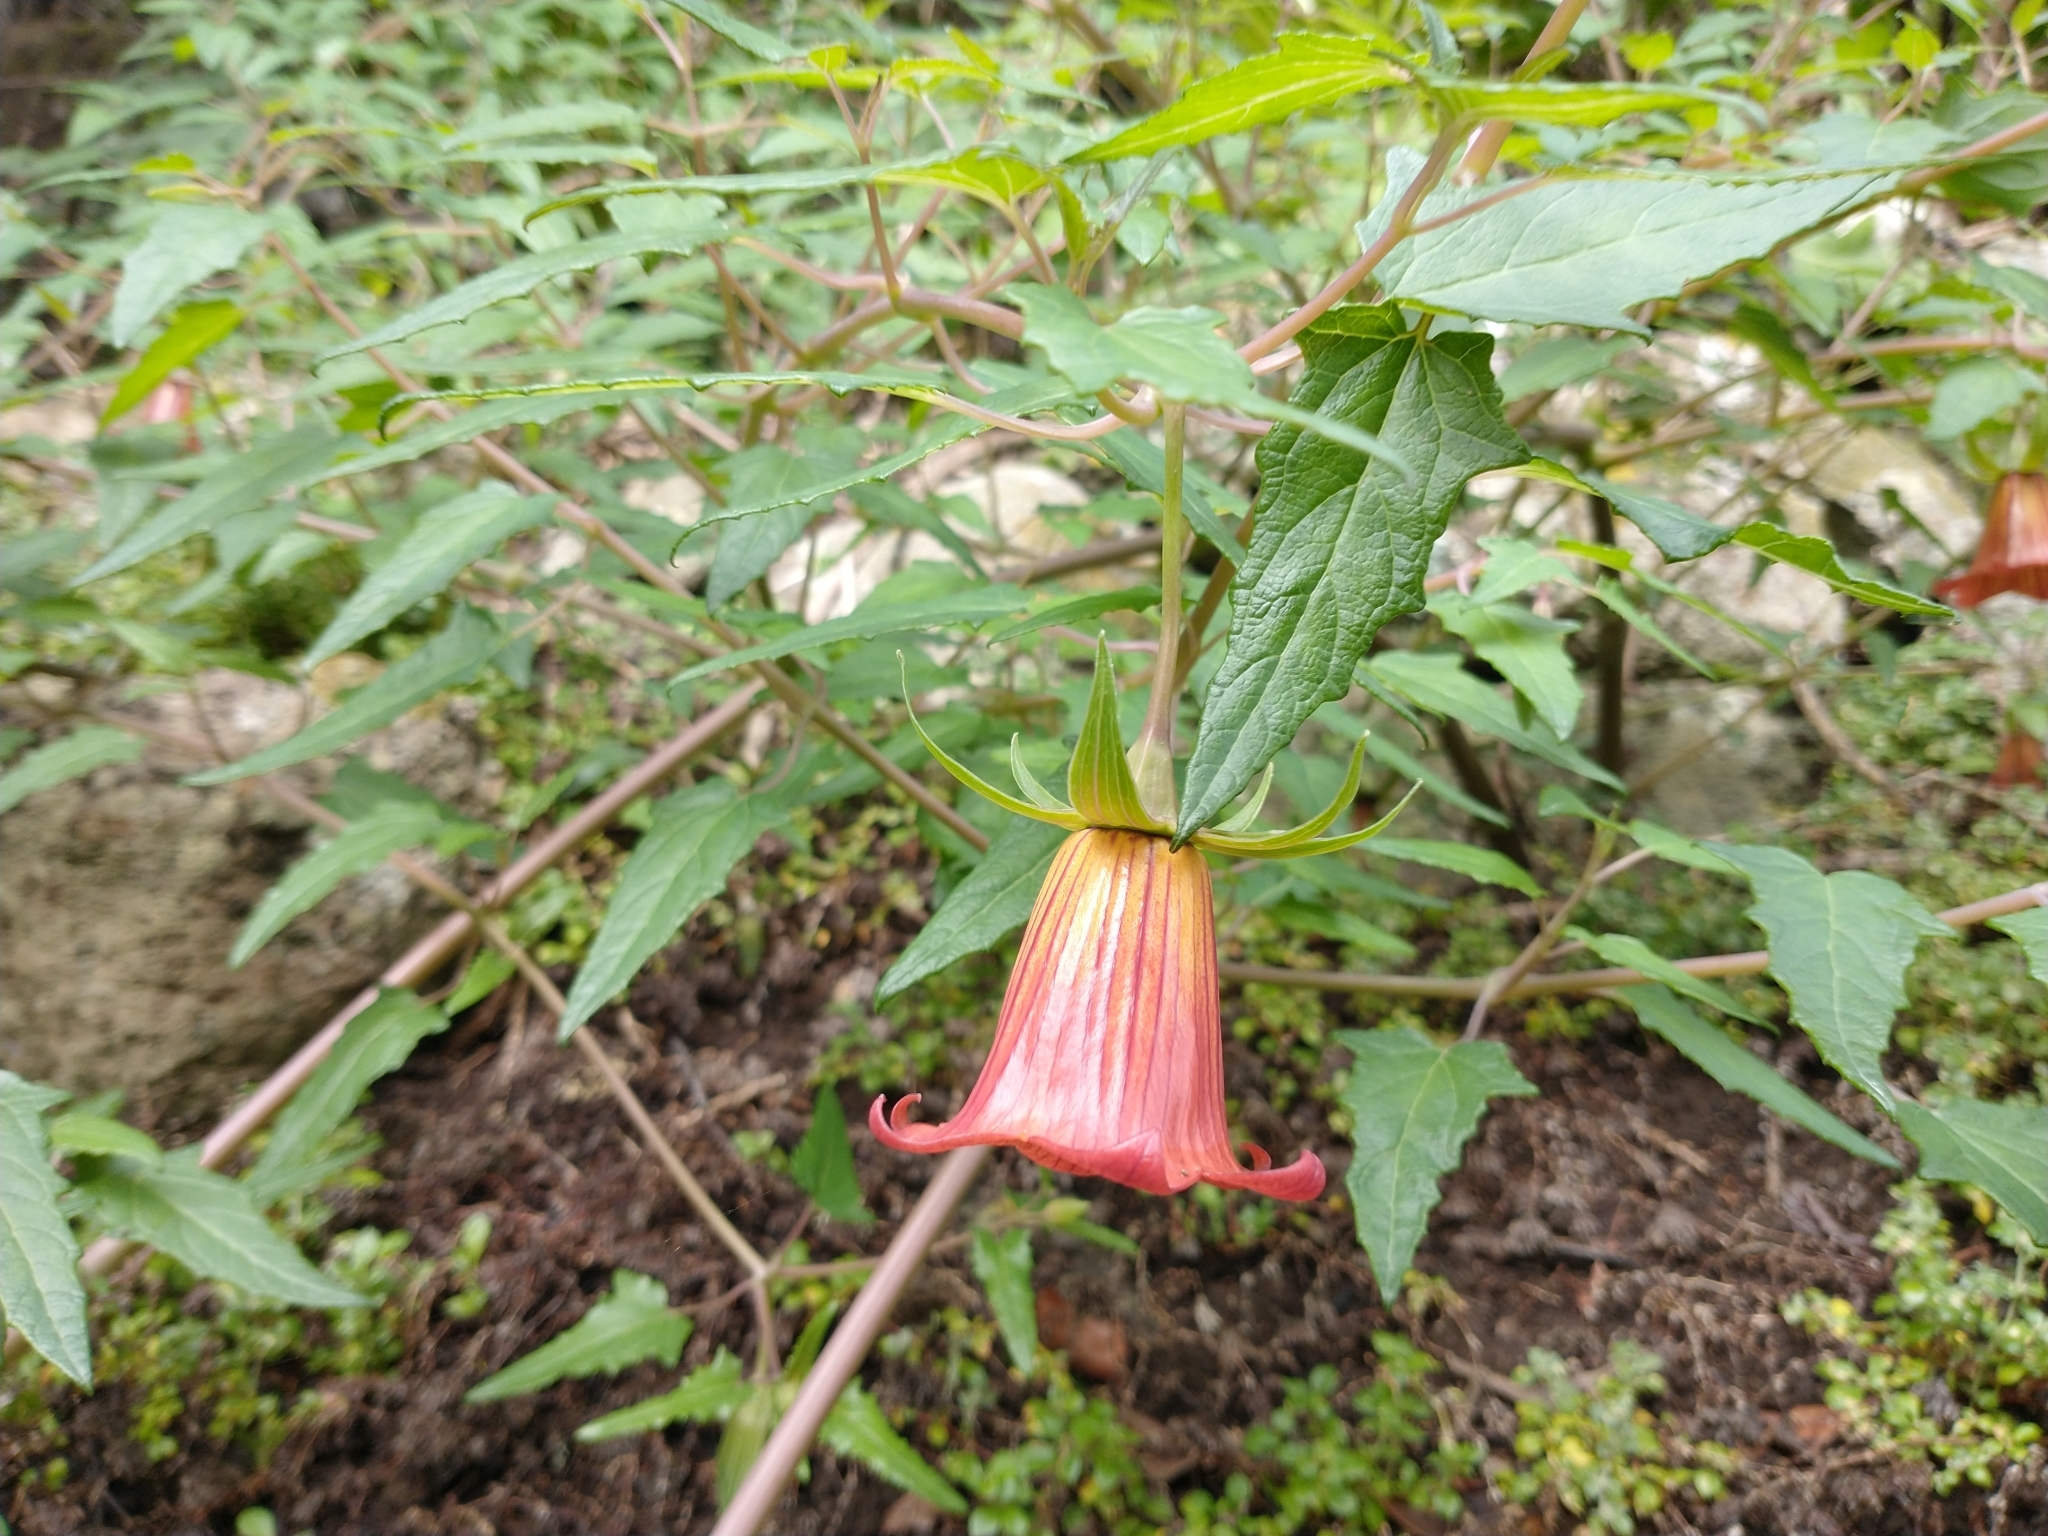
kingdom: Plantae
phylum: Tracheophyta
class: Magnoliopsida
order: Asterales
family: Campanulaceae
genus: Canarina
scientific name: Canarina canariensis
